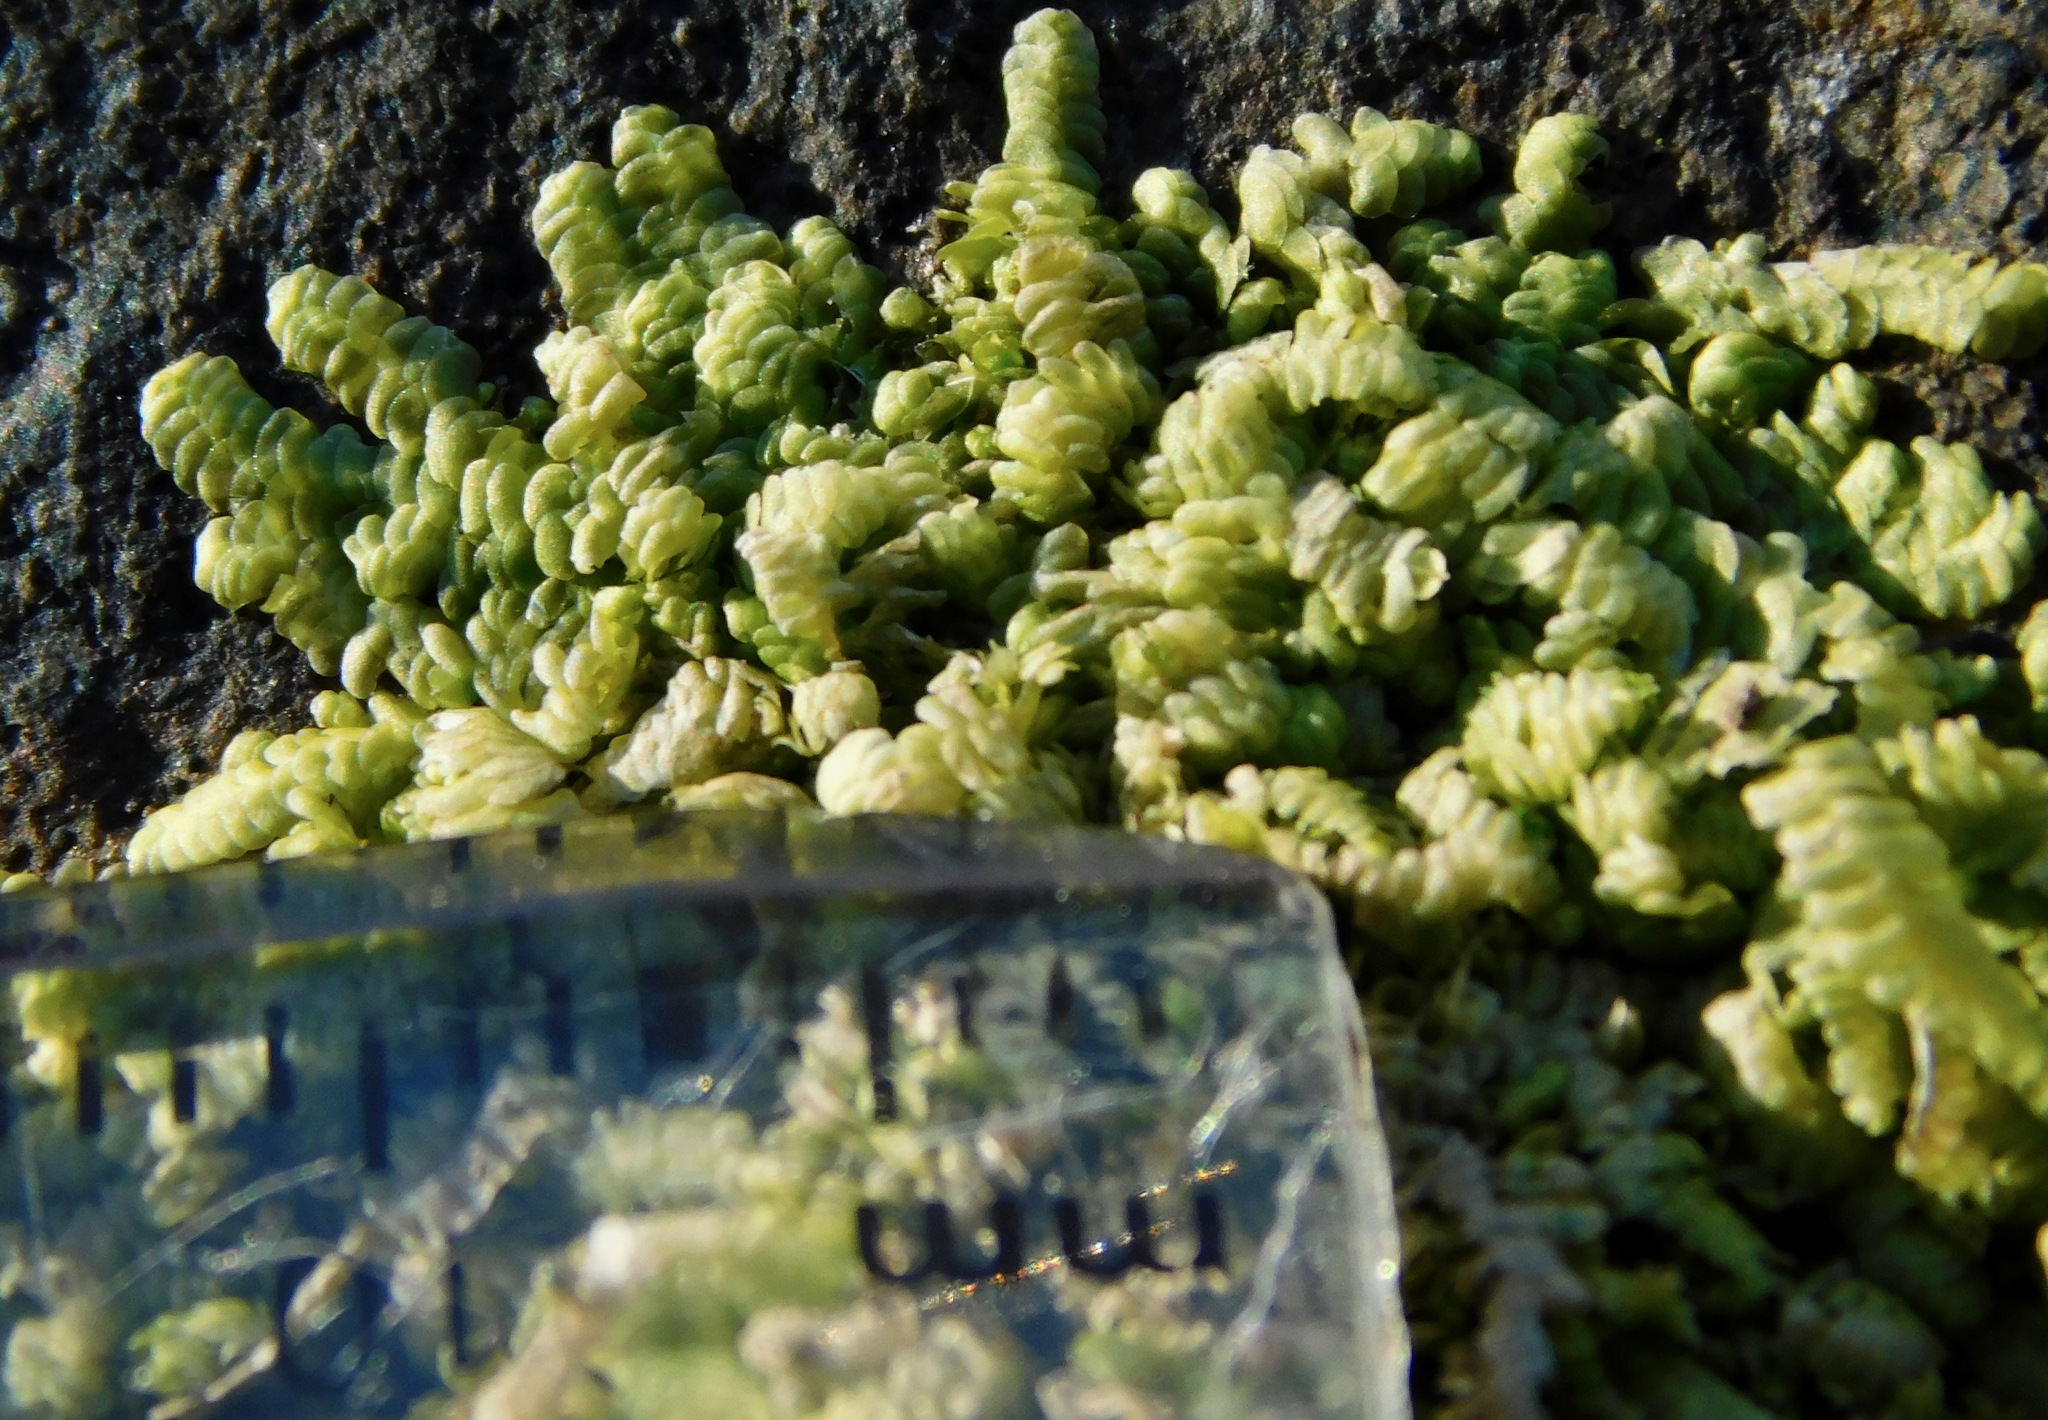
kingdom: Plantae
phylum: Marchantiophyta
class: Jungermanniopsida
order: Porellales
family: Radulaceae
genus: Radula
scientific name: Radula complanata
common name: Flat-leaved scalewort
